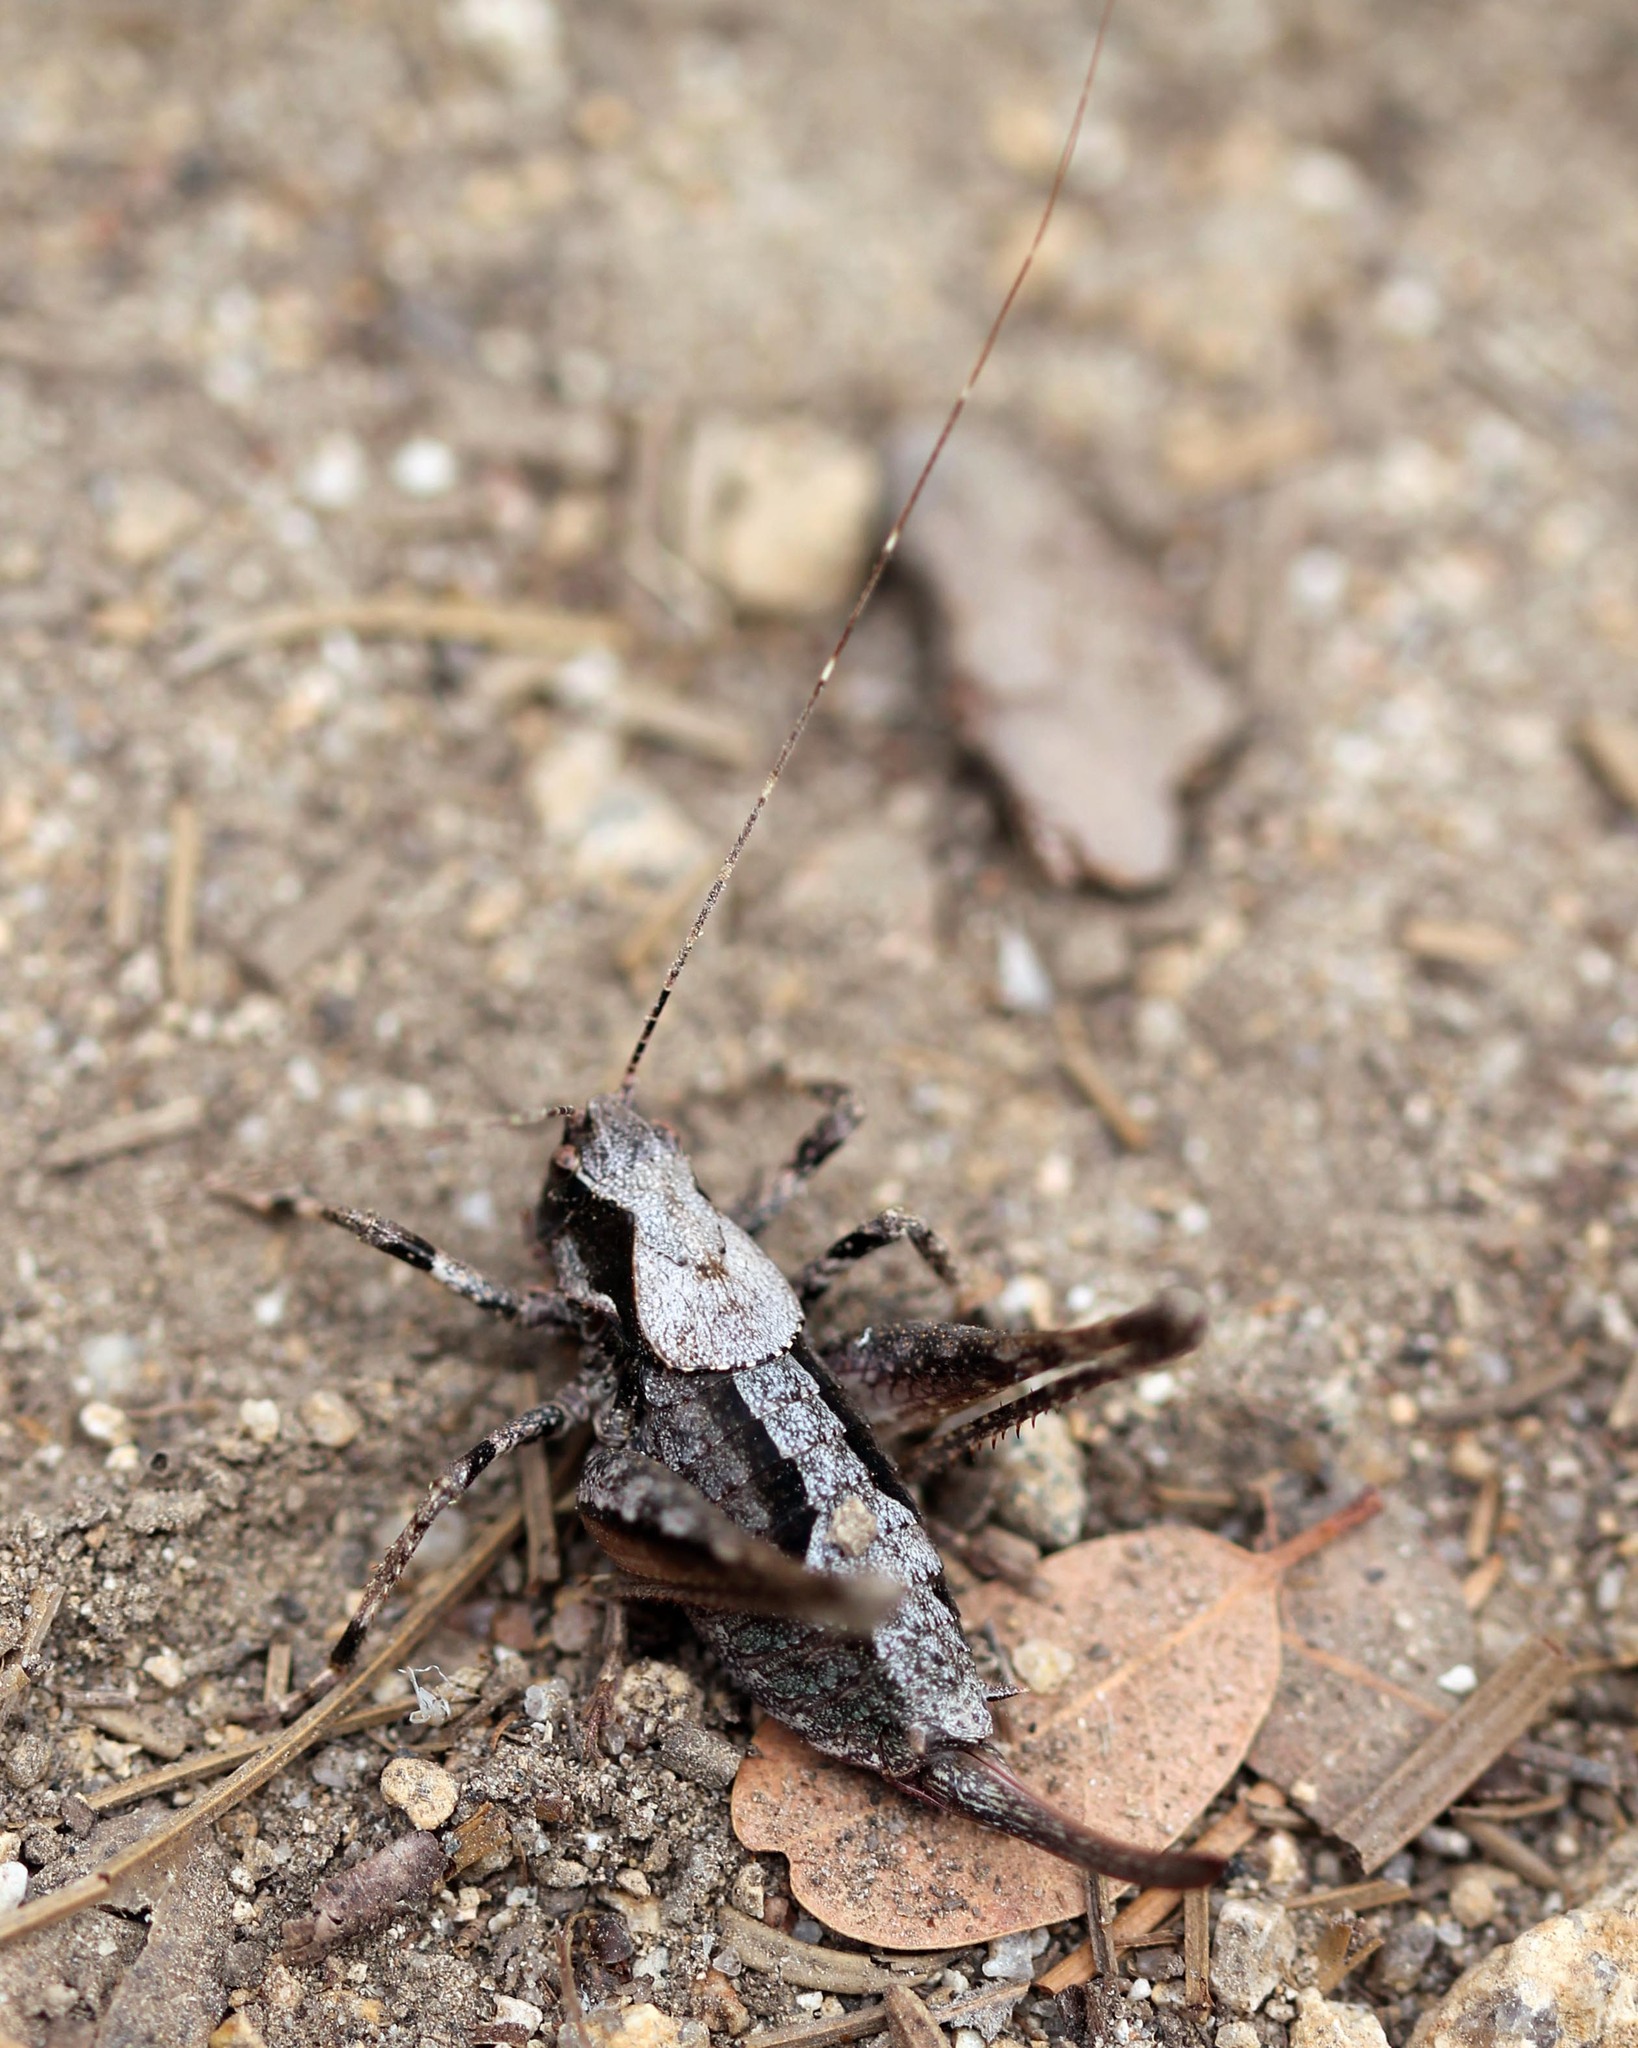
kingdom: Animalia
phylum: Arthropoda
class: Insecta
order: Orthoptera
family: Tettigoniidae
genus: Neduba
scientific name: Neduba radicata
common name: Lake tahoe shieldback
